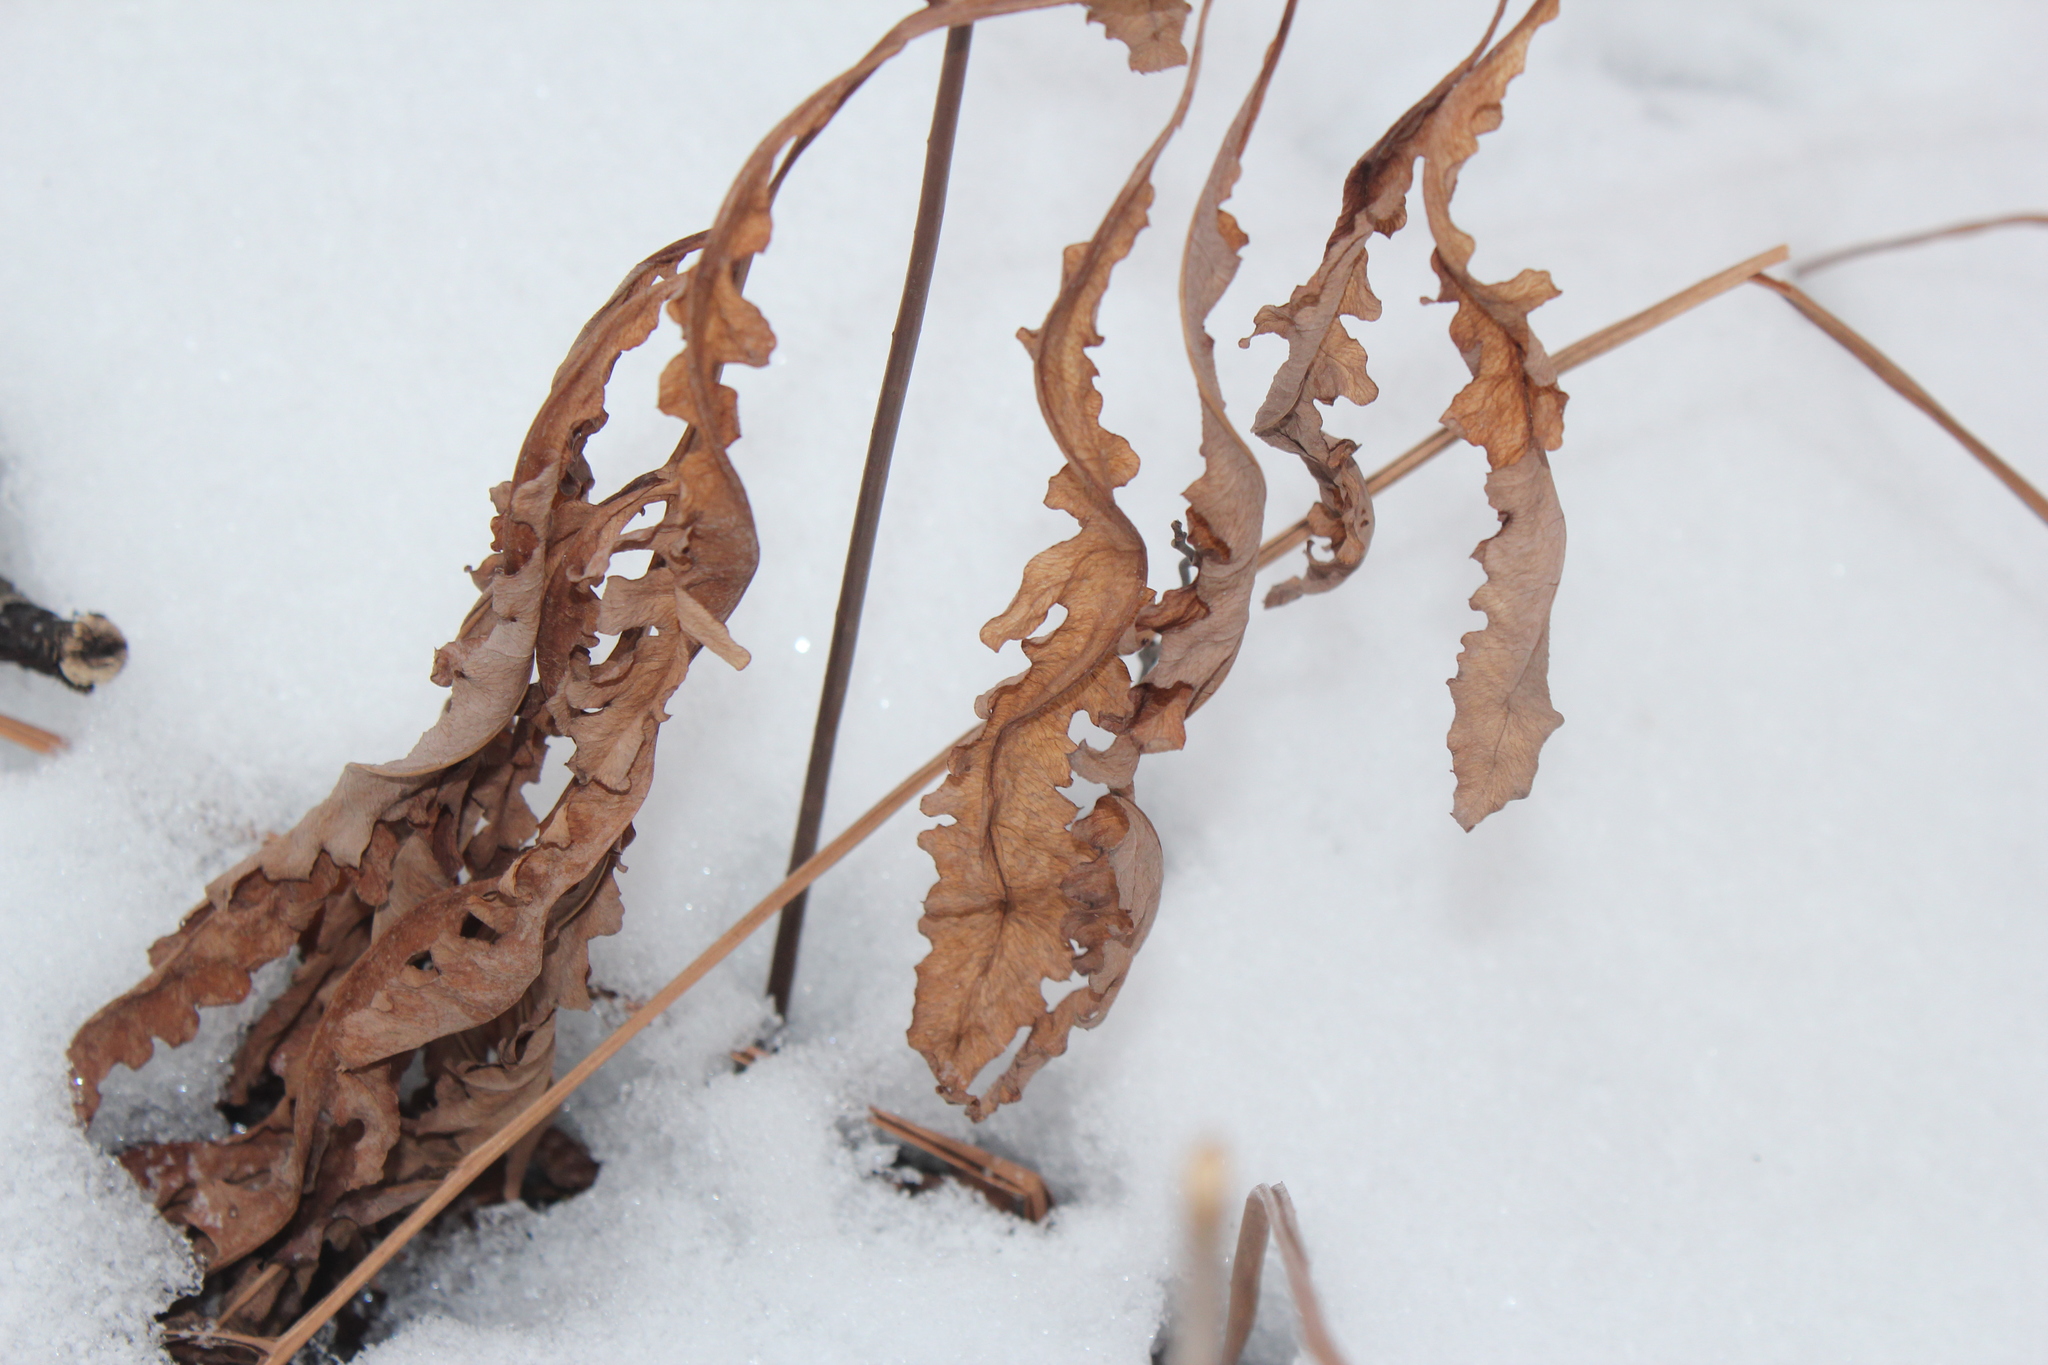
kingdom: Plantae
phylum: Tracheophyta
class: Polypodiopsida
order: Polypodiales
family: Onocleaceae
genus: Onoclea
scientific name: Onoclea sensibilis
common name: Sensitive fern
